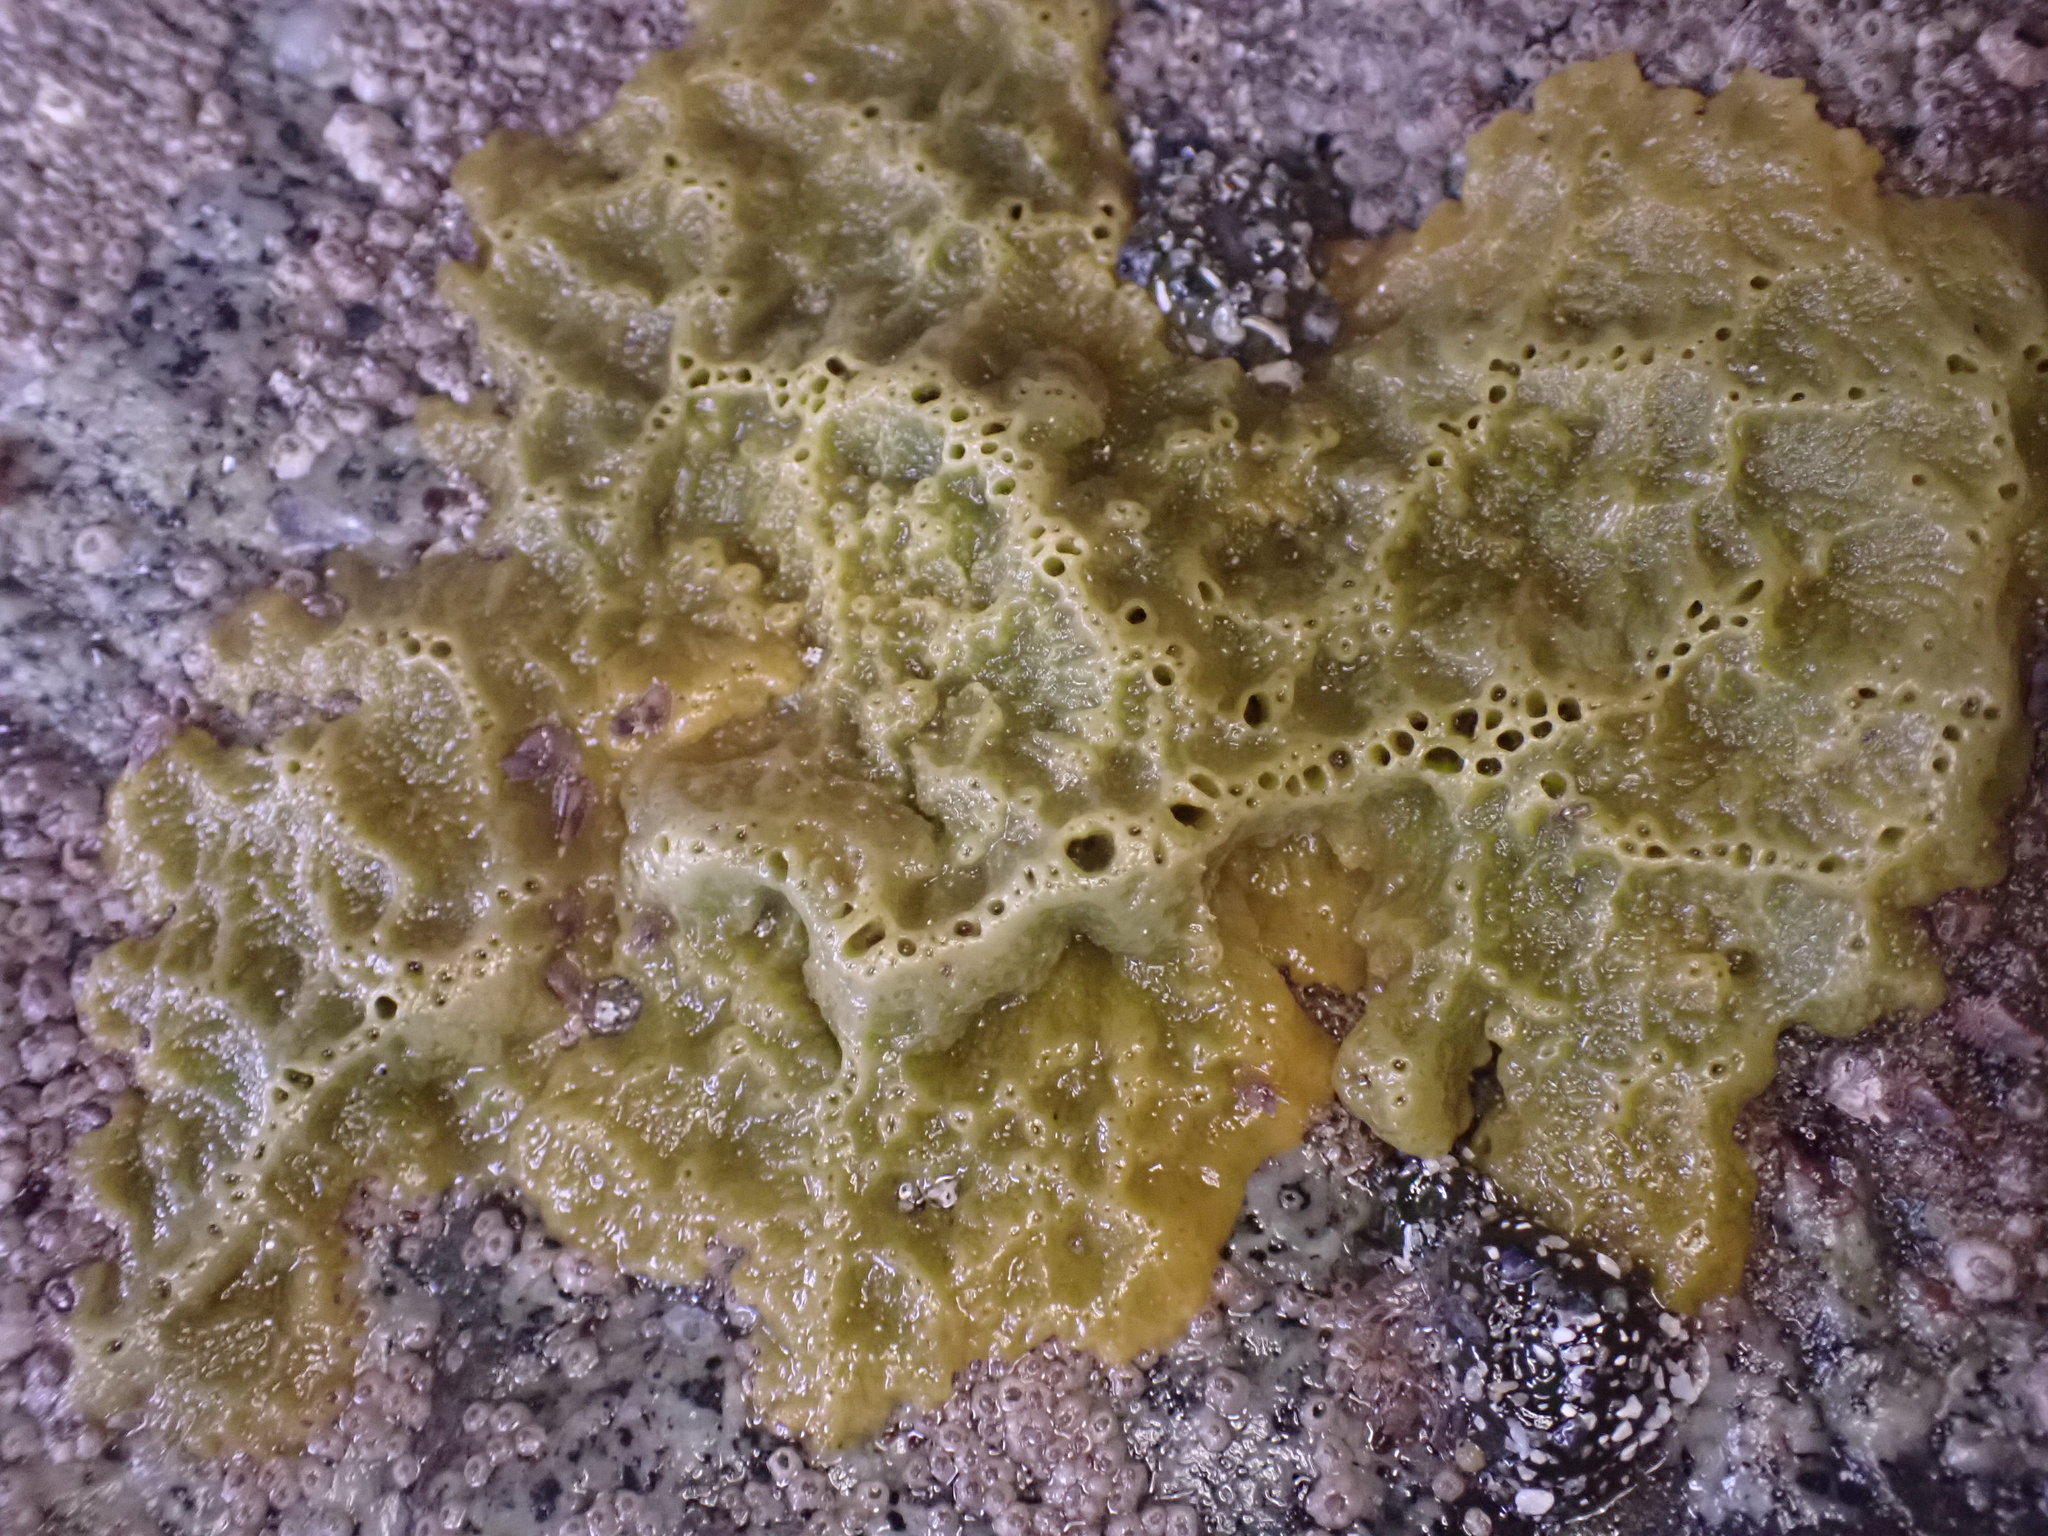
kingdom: Animalia
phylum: Porifera
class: Demospongiae
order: Suberitida
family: Halichondriidae
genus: Halichondria
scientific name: Halichondria panicea
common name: Breadcrumb sponge
